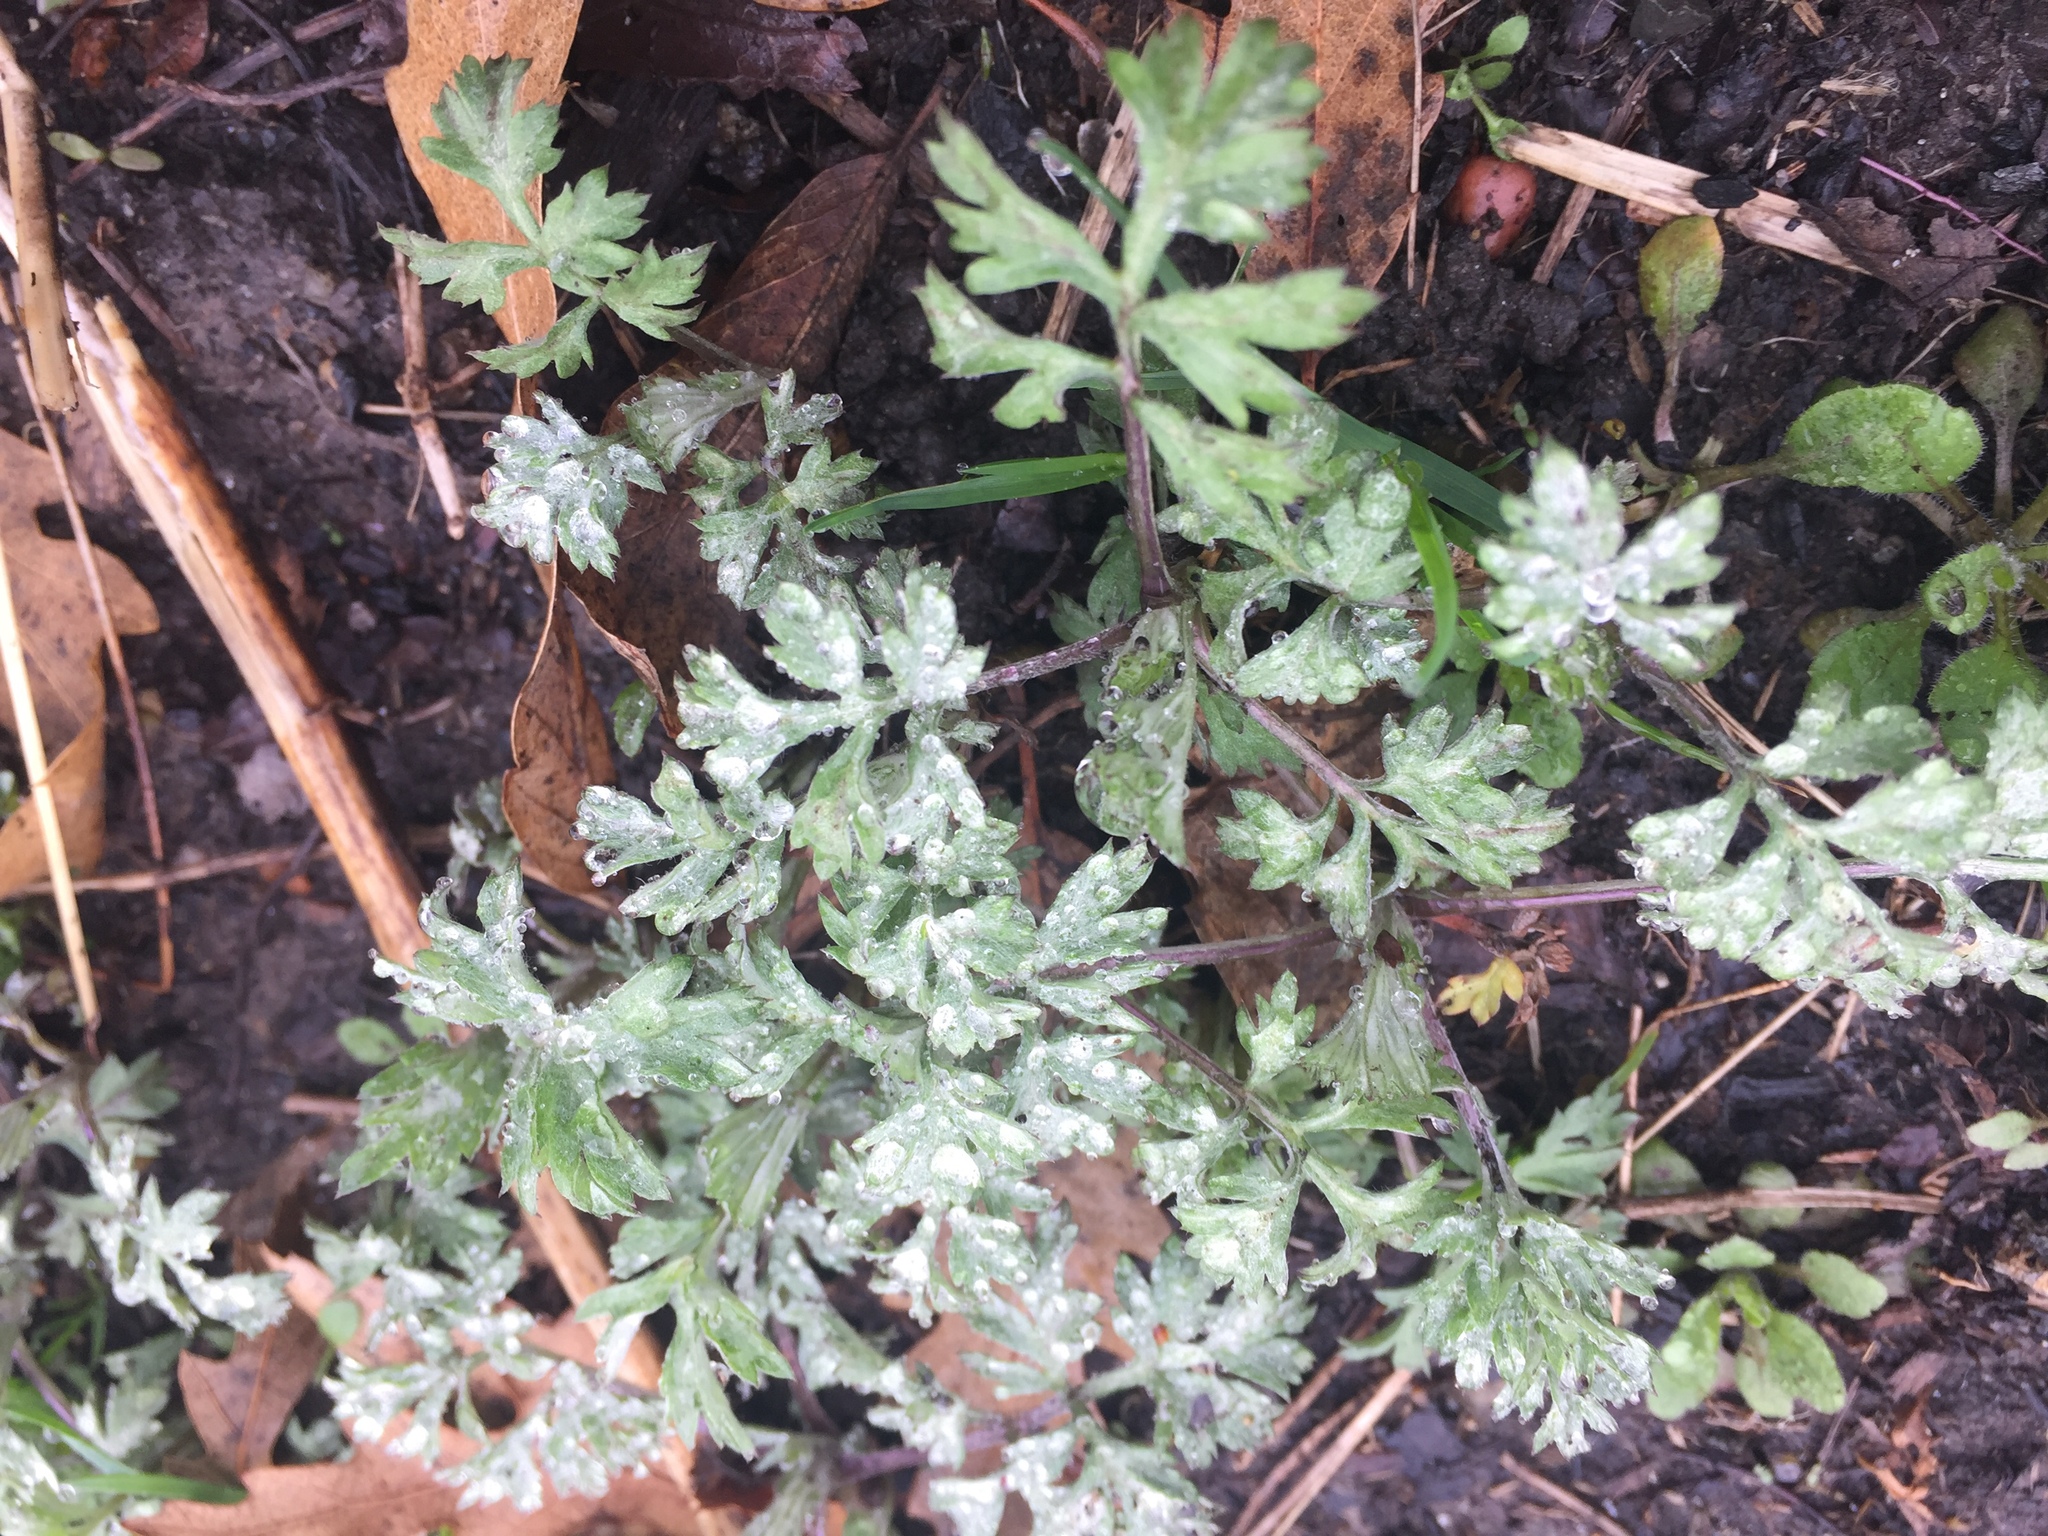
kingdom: Plantae
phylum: Tracheophyta
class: Magnoliopsida
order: Asterales
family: Asteraceae
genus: Artemisia
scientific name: Artemisia vulgaris
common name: Mugwort
